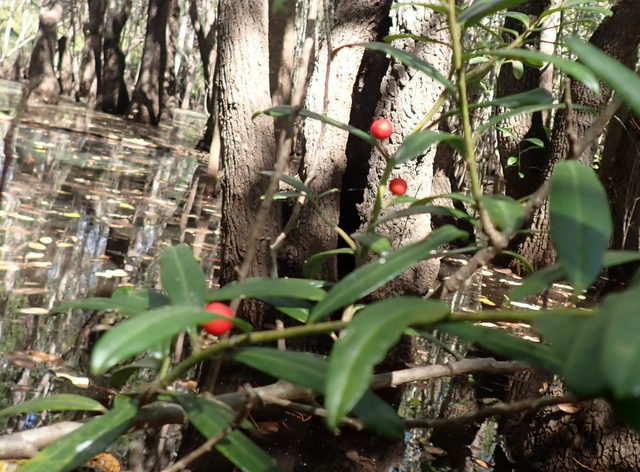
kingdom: Plantae
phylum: Tracheophyta
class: Magnoliopsida
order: Aquifoliales
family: Aquifoliaceae
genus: Ilex
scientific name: Ilex cassine
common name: Dahoon
